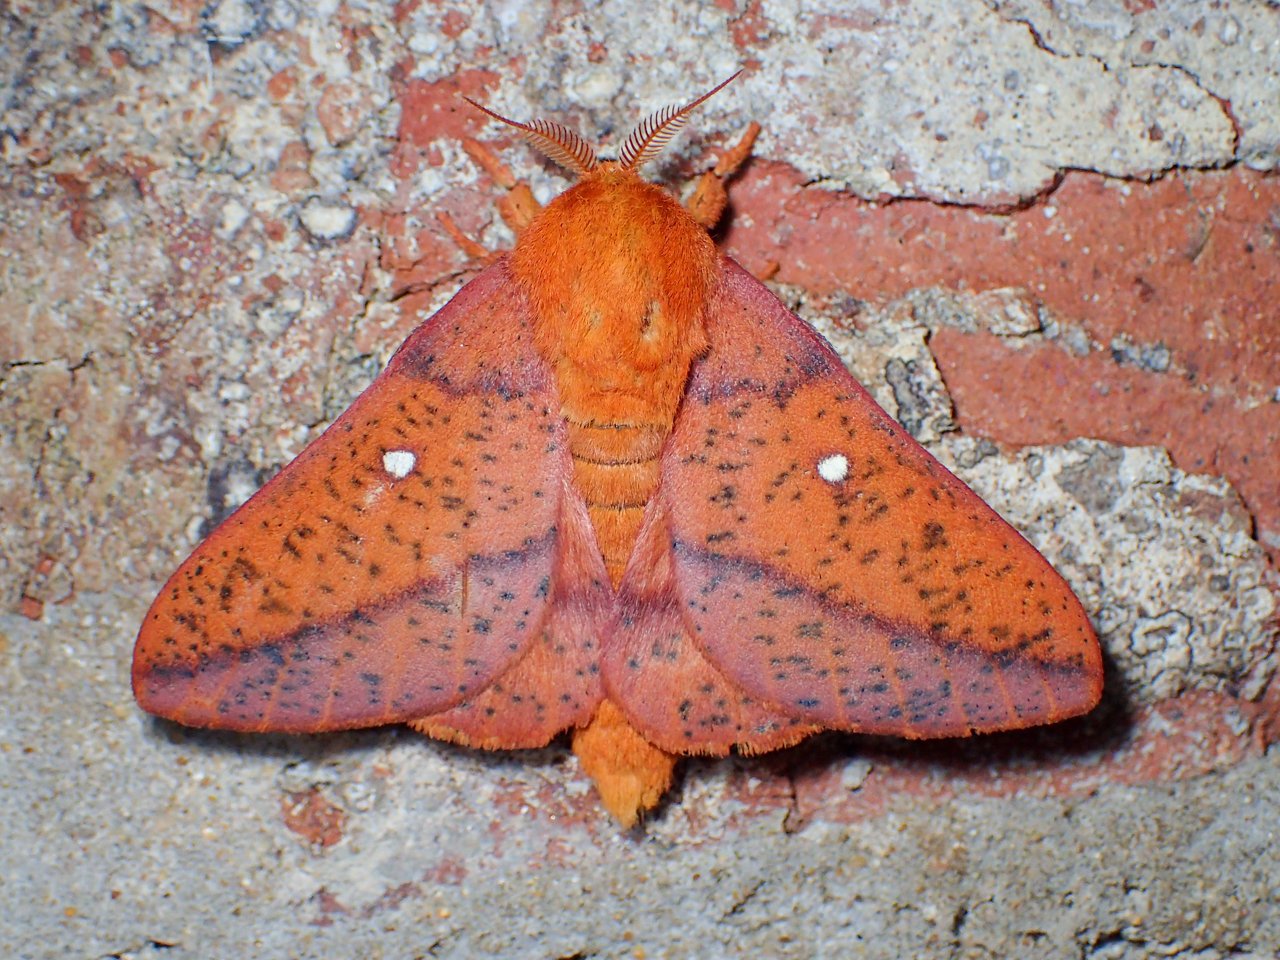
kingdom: Animalia
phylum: Arthropoda
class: Insecta
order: Lepidoptera
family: Saturniidae
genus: Anisota
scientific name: Anisota stigma
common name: Spiny oakworm moth
